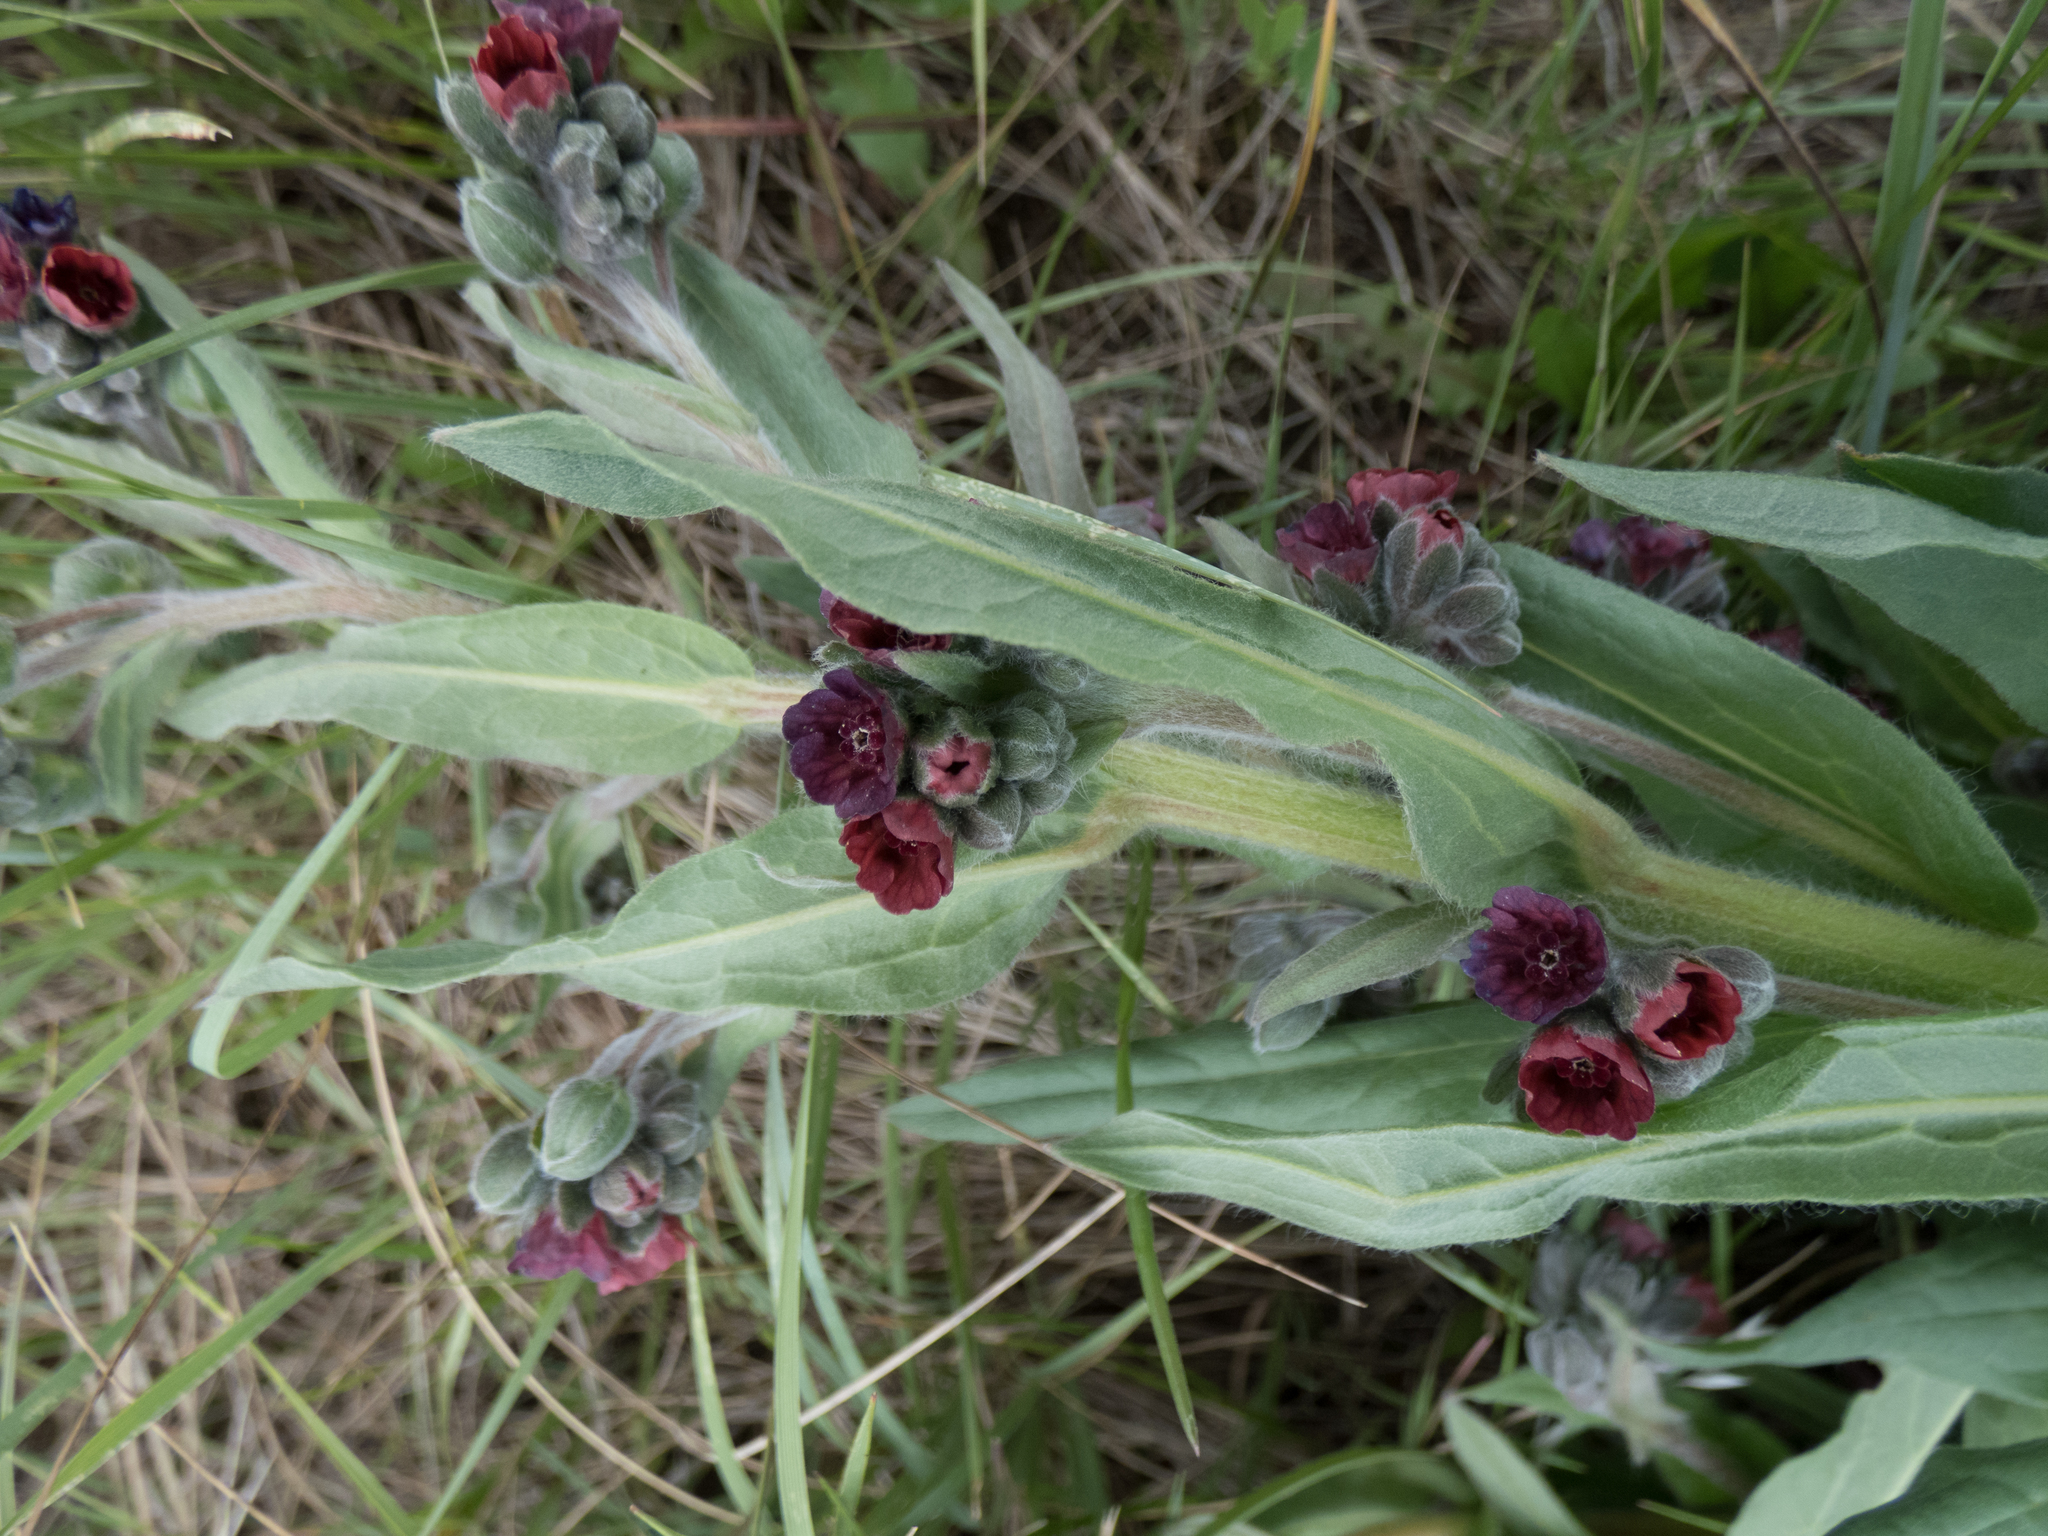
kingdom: Plantae
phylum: Tracheophyta
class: Magnoliopsida
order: Boraginales
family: Boraginaceae
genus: Cynoglossum
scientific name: Cynoglossum officinale
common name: Hound's-tongue
